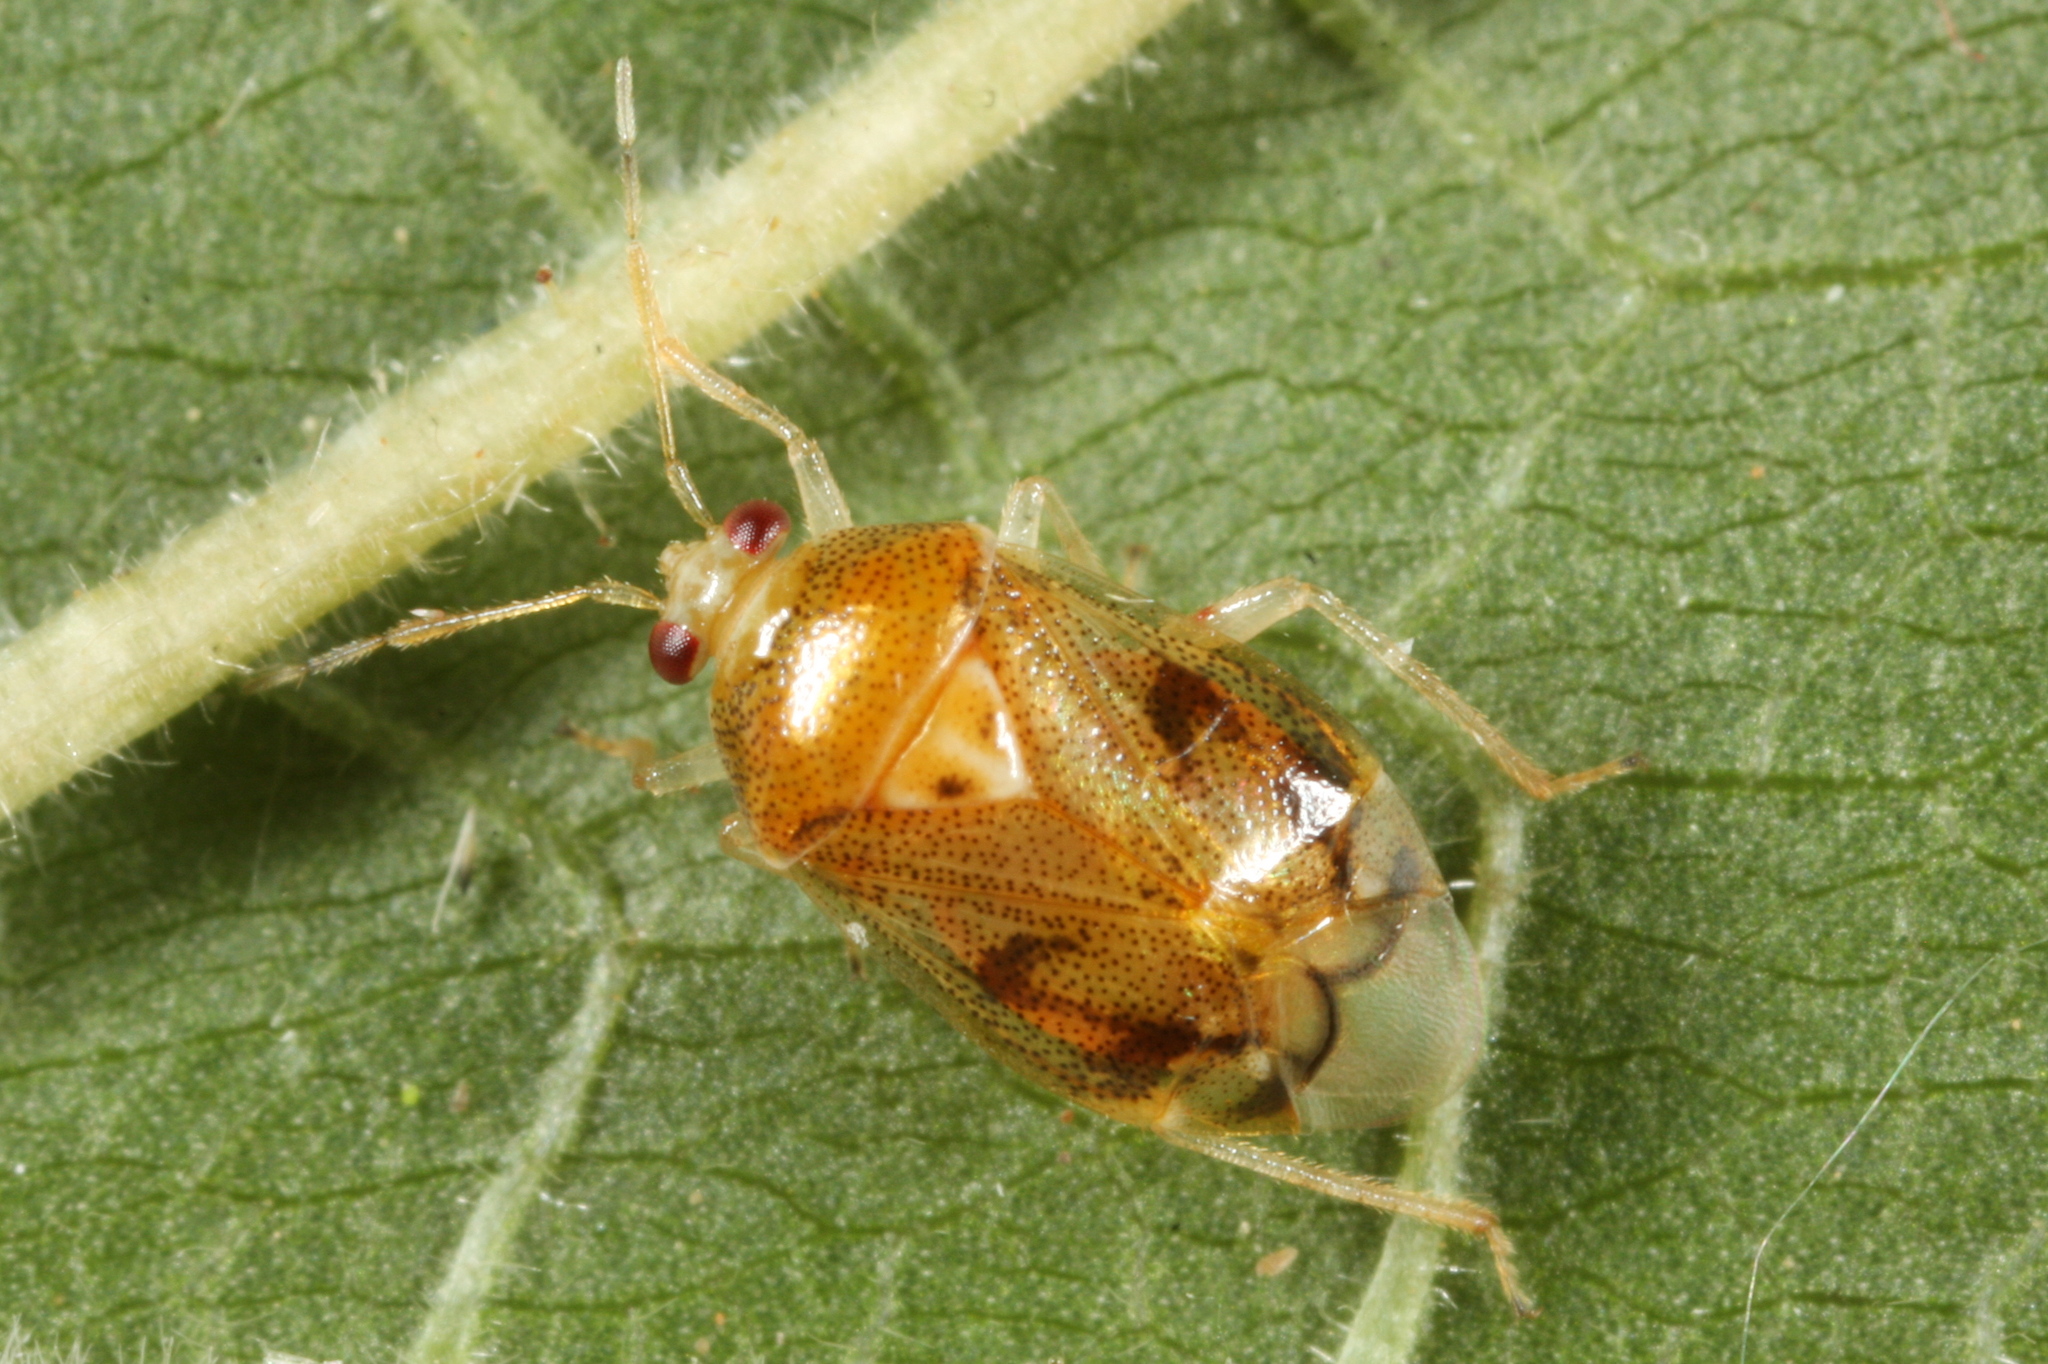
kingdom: Animalia
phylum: Arthropoda
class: Insecta
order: Hemiptera
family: Miridae
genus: Deraeocoris
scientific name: Deraeocoris lutescens
